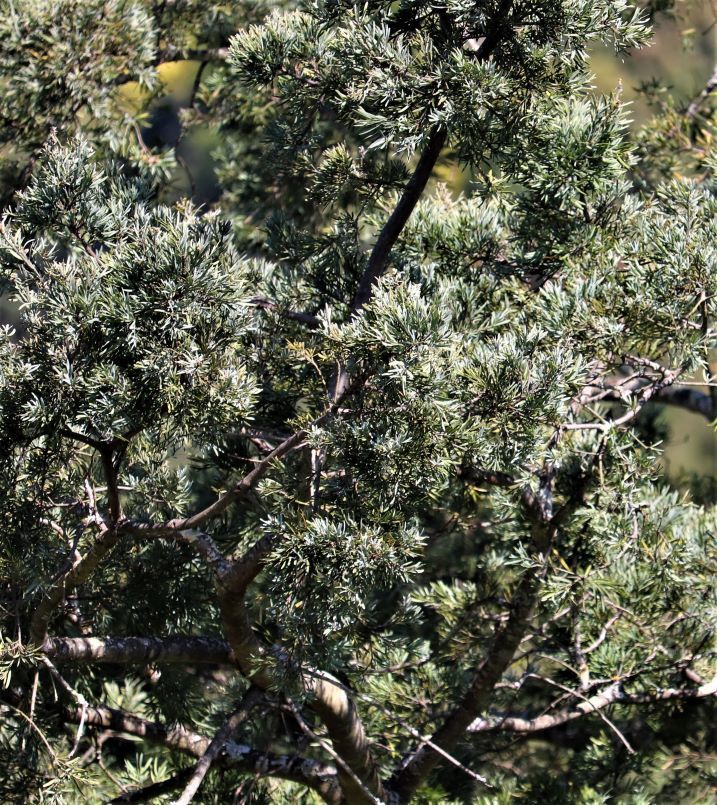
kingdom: Plantae
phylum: Tracheophyta
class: Pinopsida
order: Pinales
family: Podocarpaceae
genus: Afrocarpus
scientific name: Afrocarpus falcatus
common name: Bastard yellowwood
